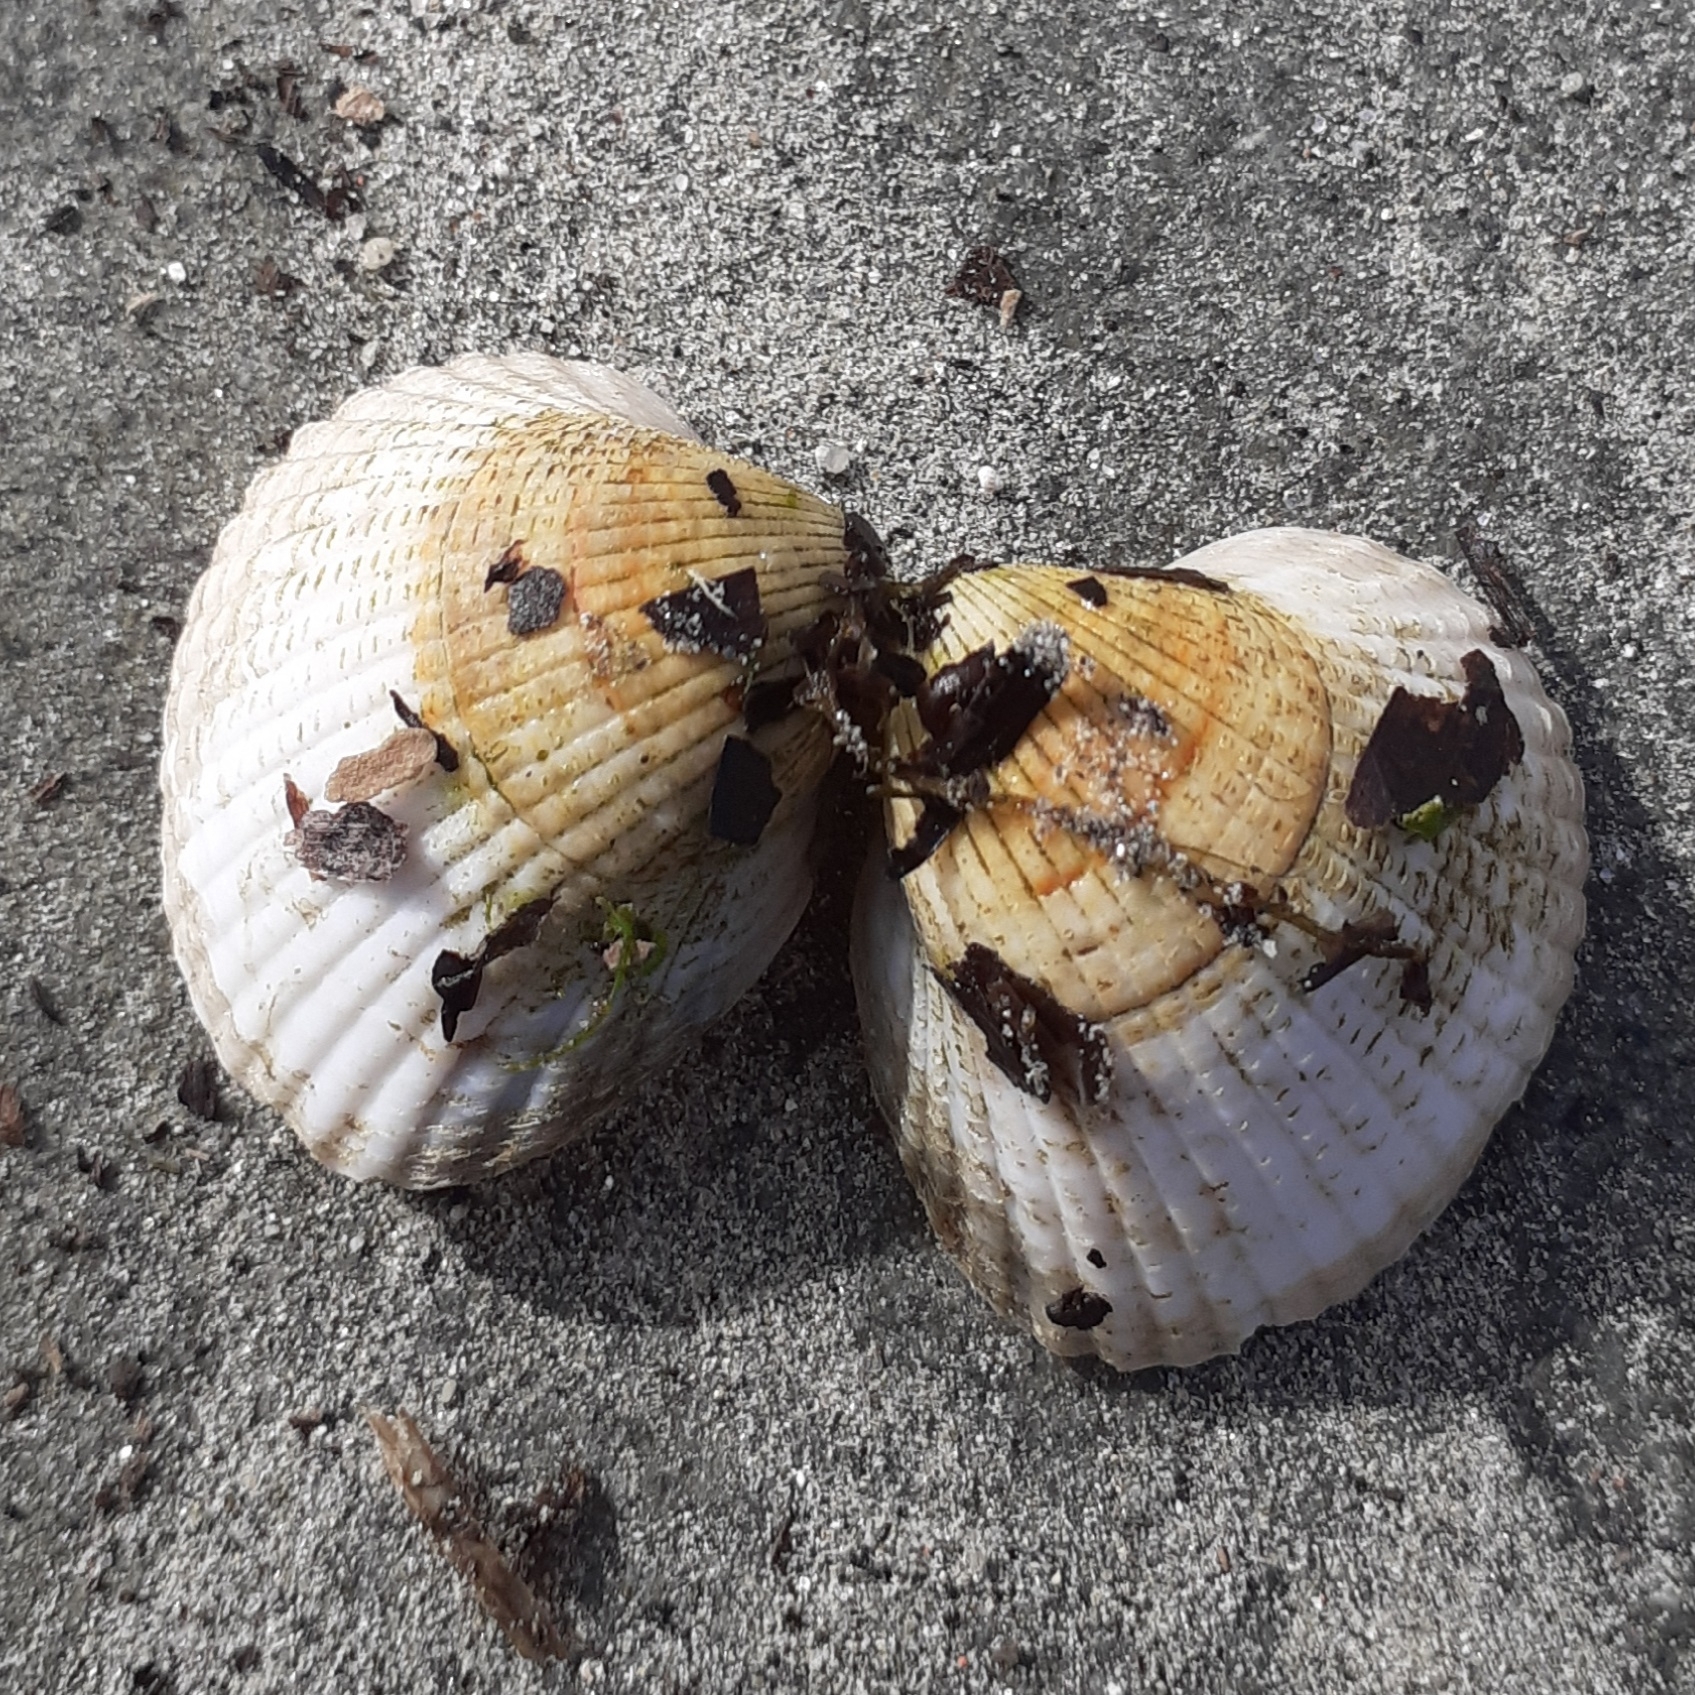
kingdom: Animalia
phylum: Mollusca
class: Bivalvia
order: Cardiida
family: Cardiidae
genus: Cerastoderma
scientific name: Cerastoderma edule
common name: Common cockle
